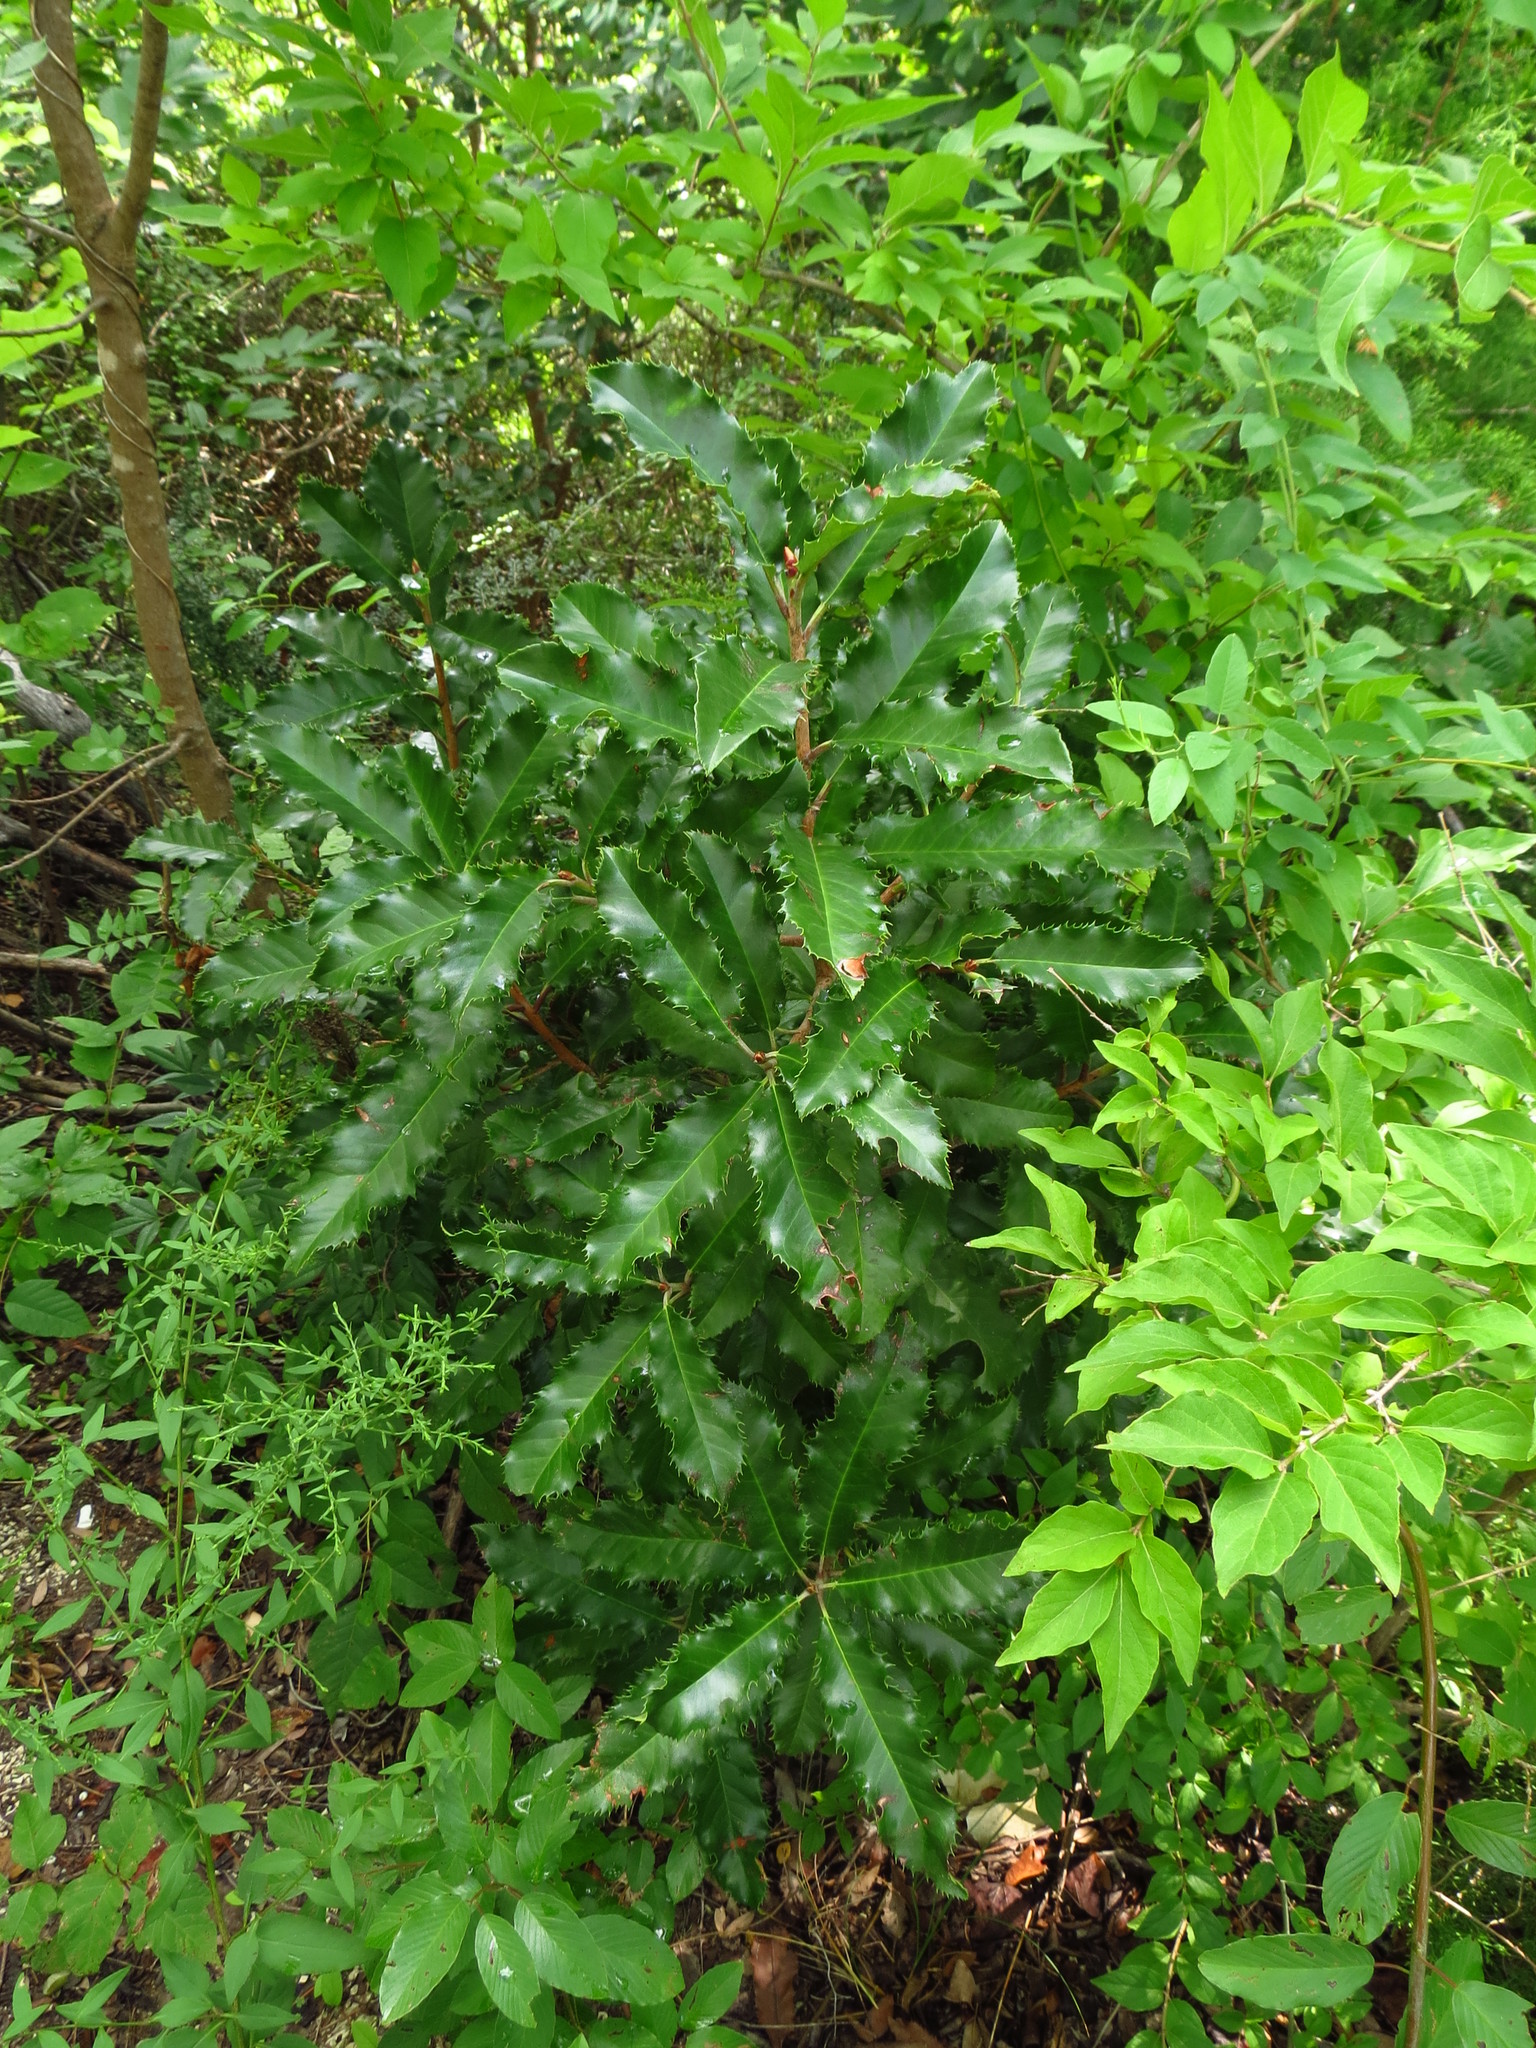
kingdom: Plantae
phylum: Tracheophyta
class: Magnoliopsida
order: Rosales
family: Rosaceae
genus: Photinia
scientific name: Photinia serratifolia
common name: Taiwanese photinia
